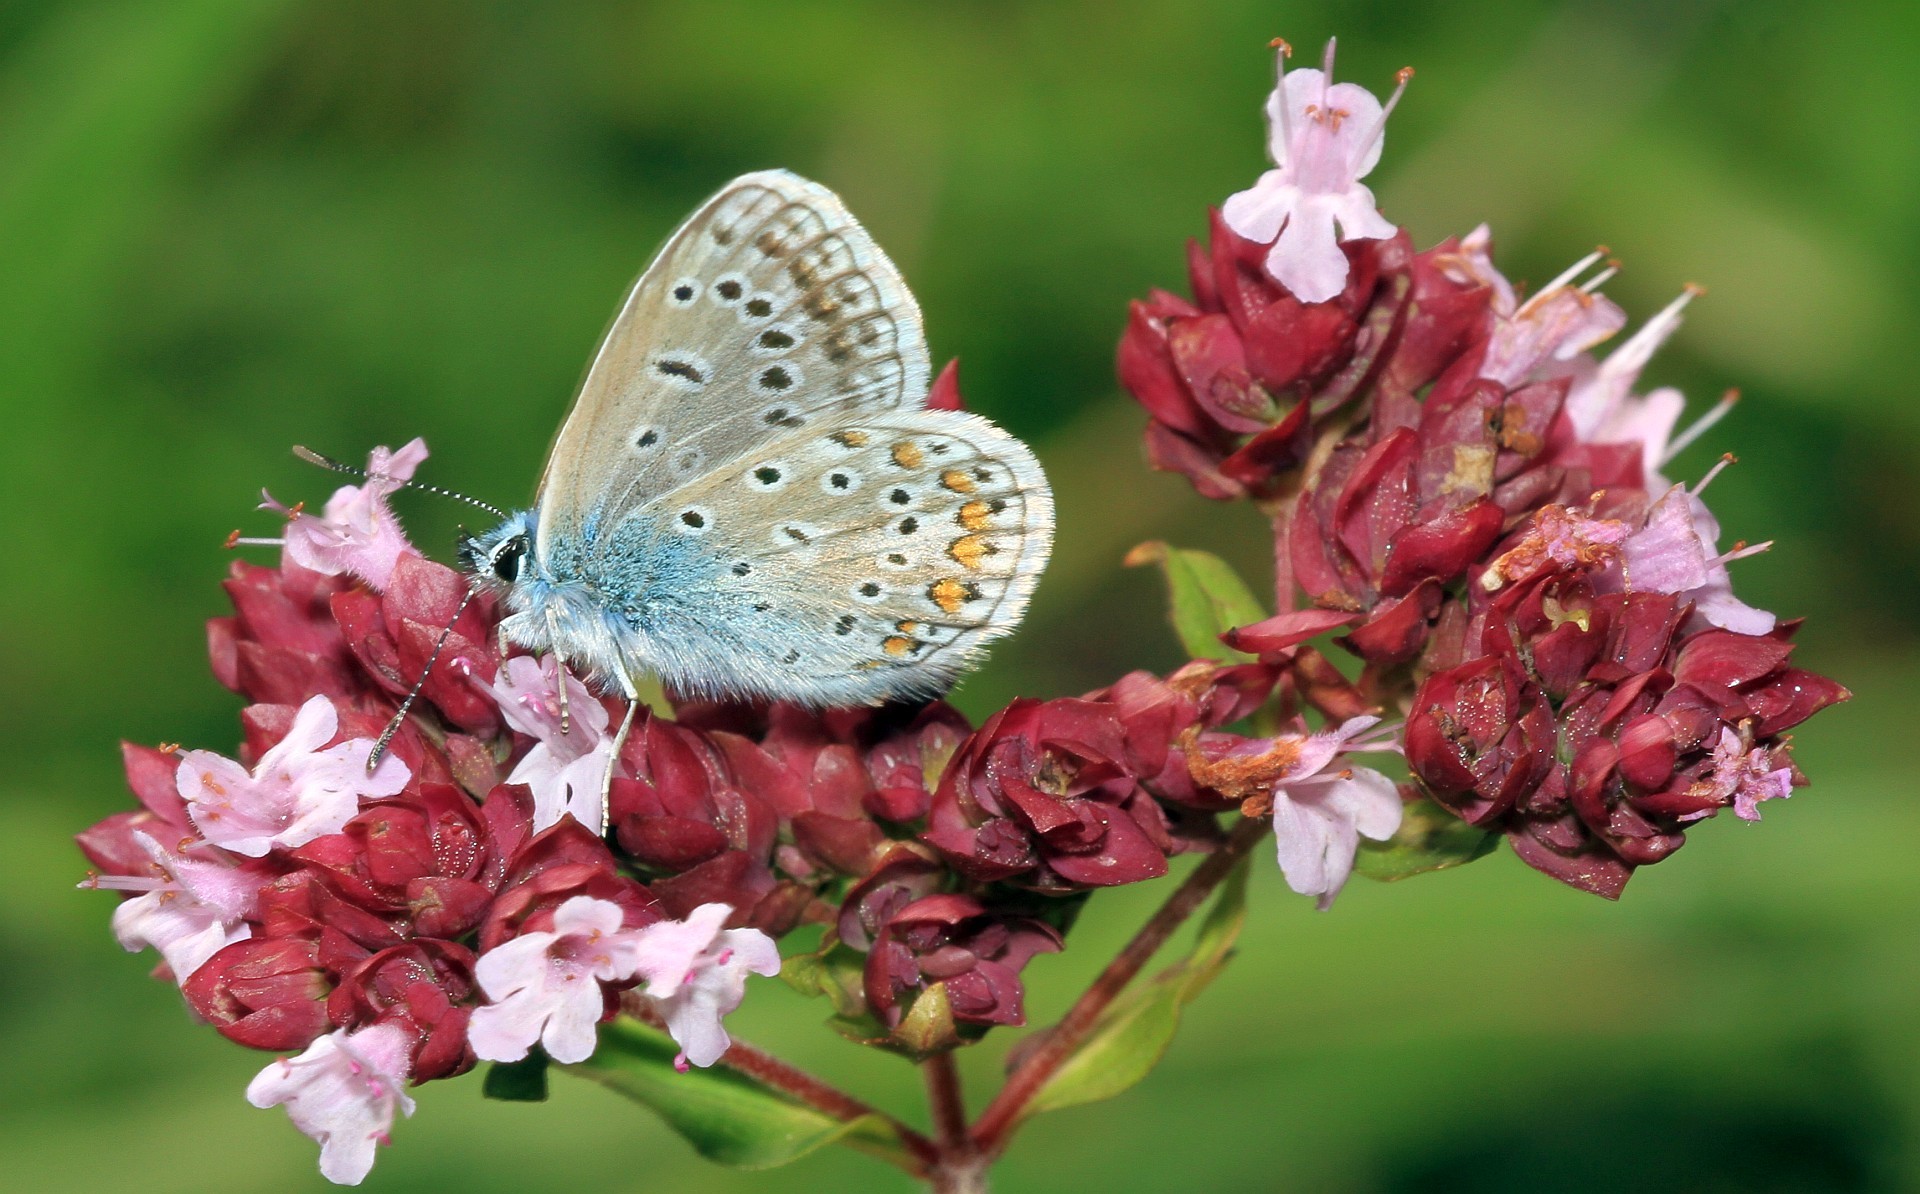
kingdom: Animalia
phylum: Arthropoda
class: Insecta
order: Lepidoptera
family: Lycaenidae
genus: Polyommatus
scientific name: Polyommatus icarus
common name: Common blue
